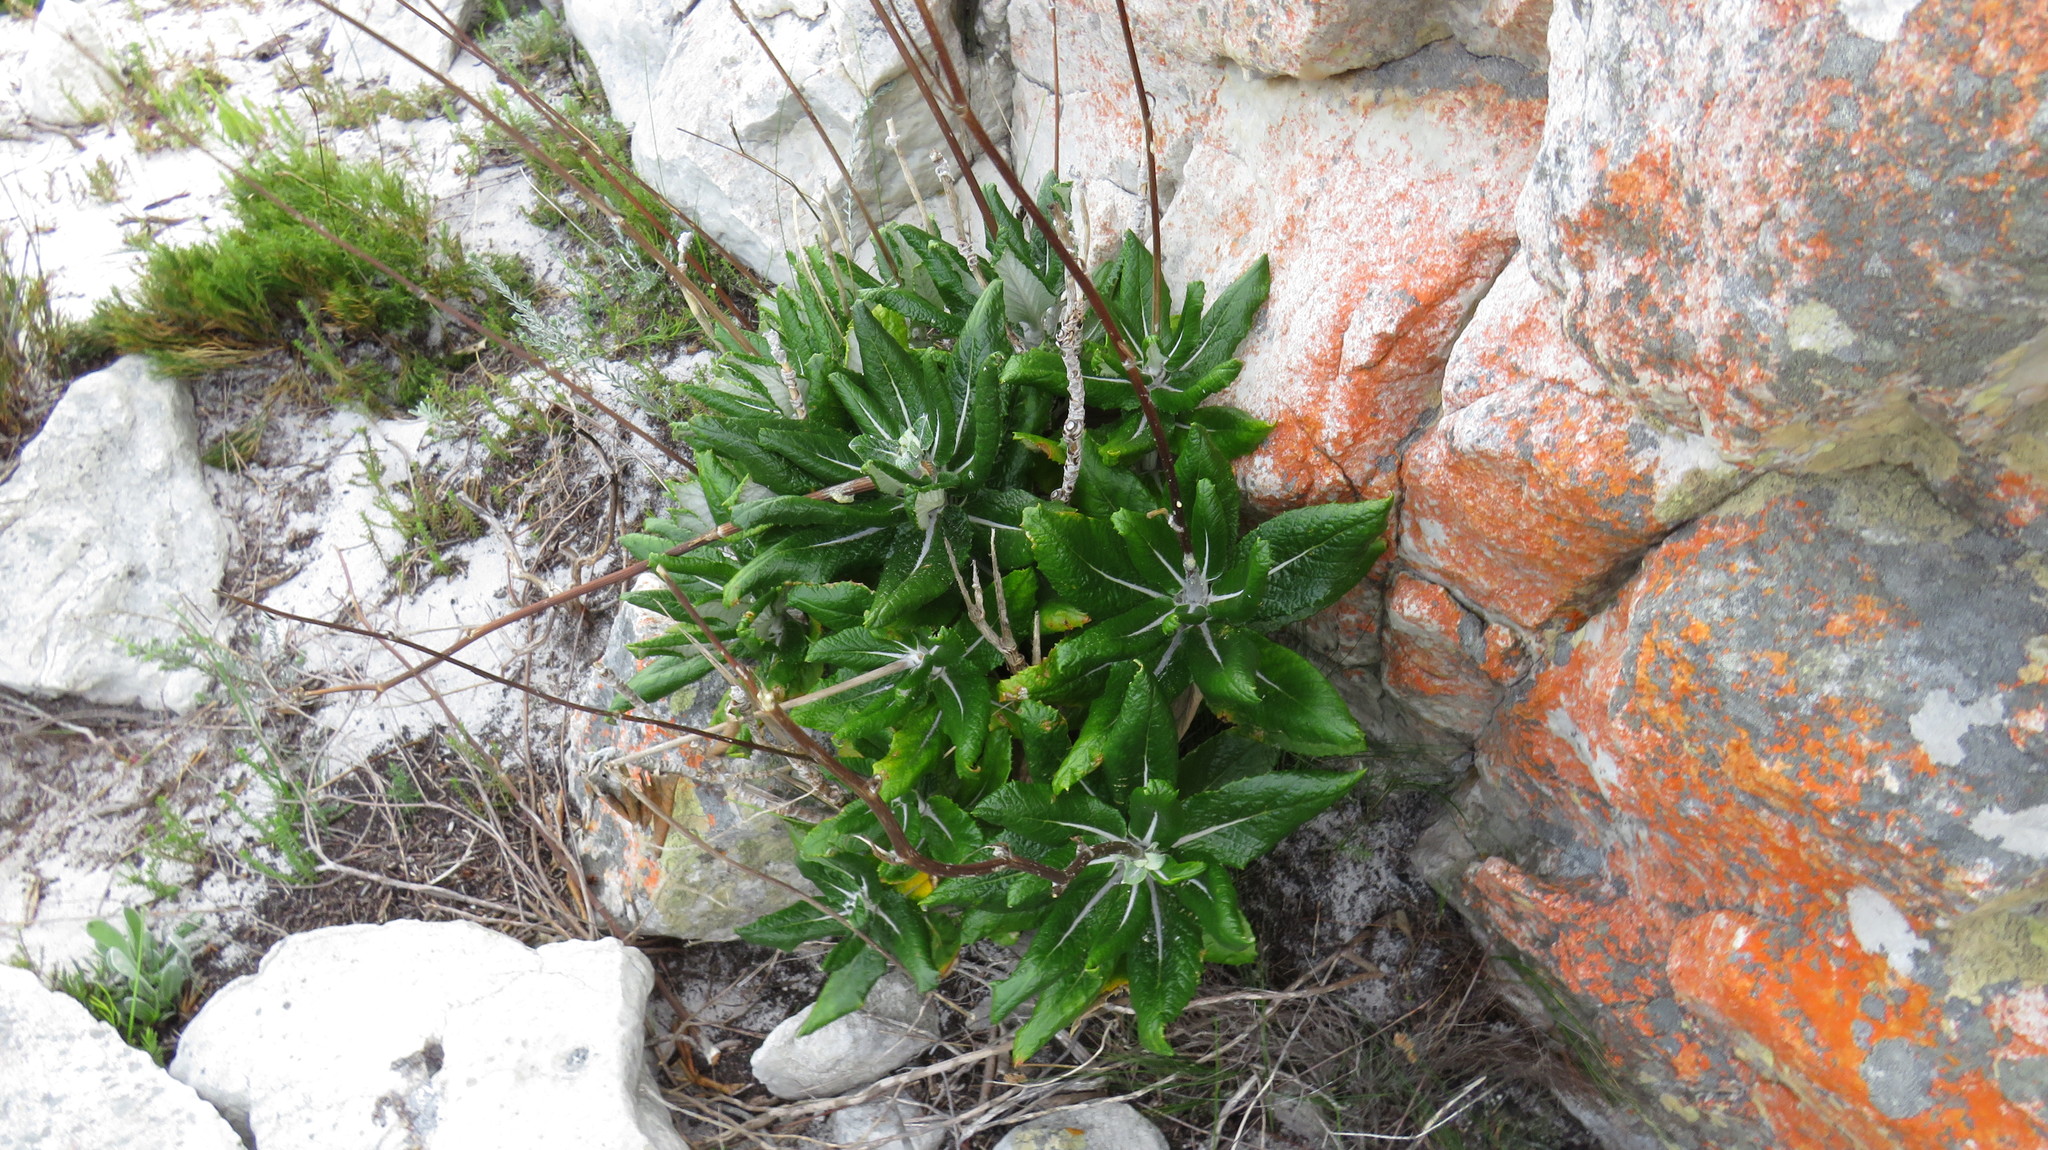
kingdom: Plantae
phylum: Tracheophyta
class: Magnoliopsida
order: Apiales
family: Apiaceae
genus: Hermas
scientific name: Hermas villosa
